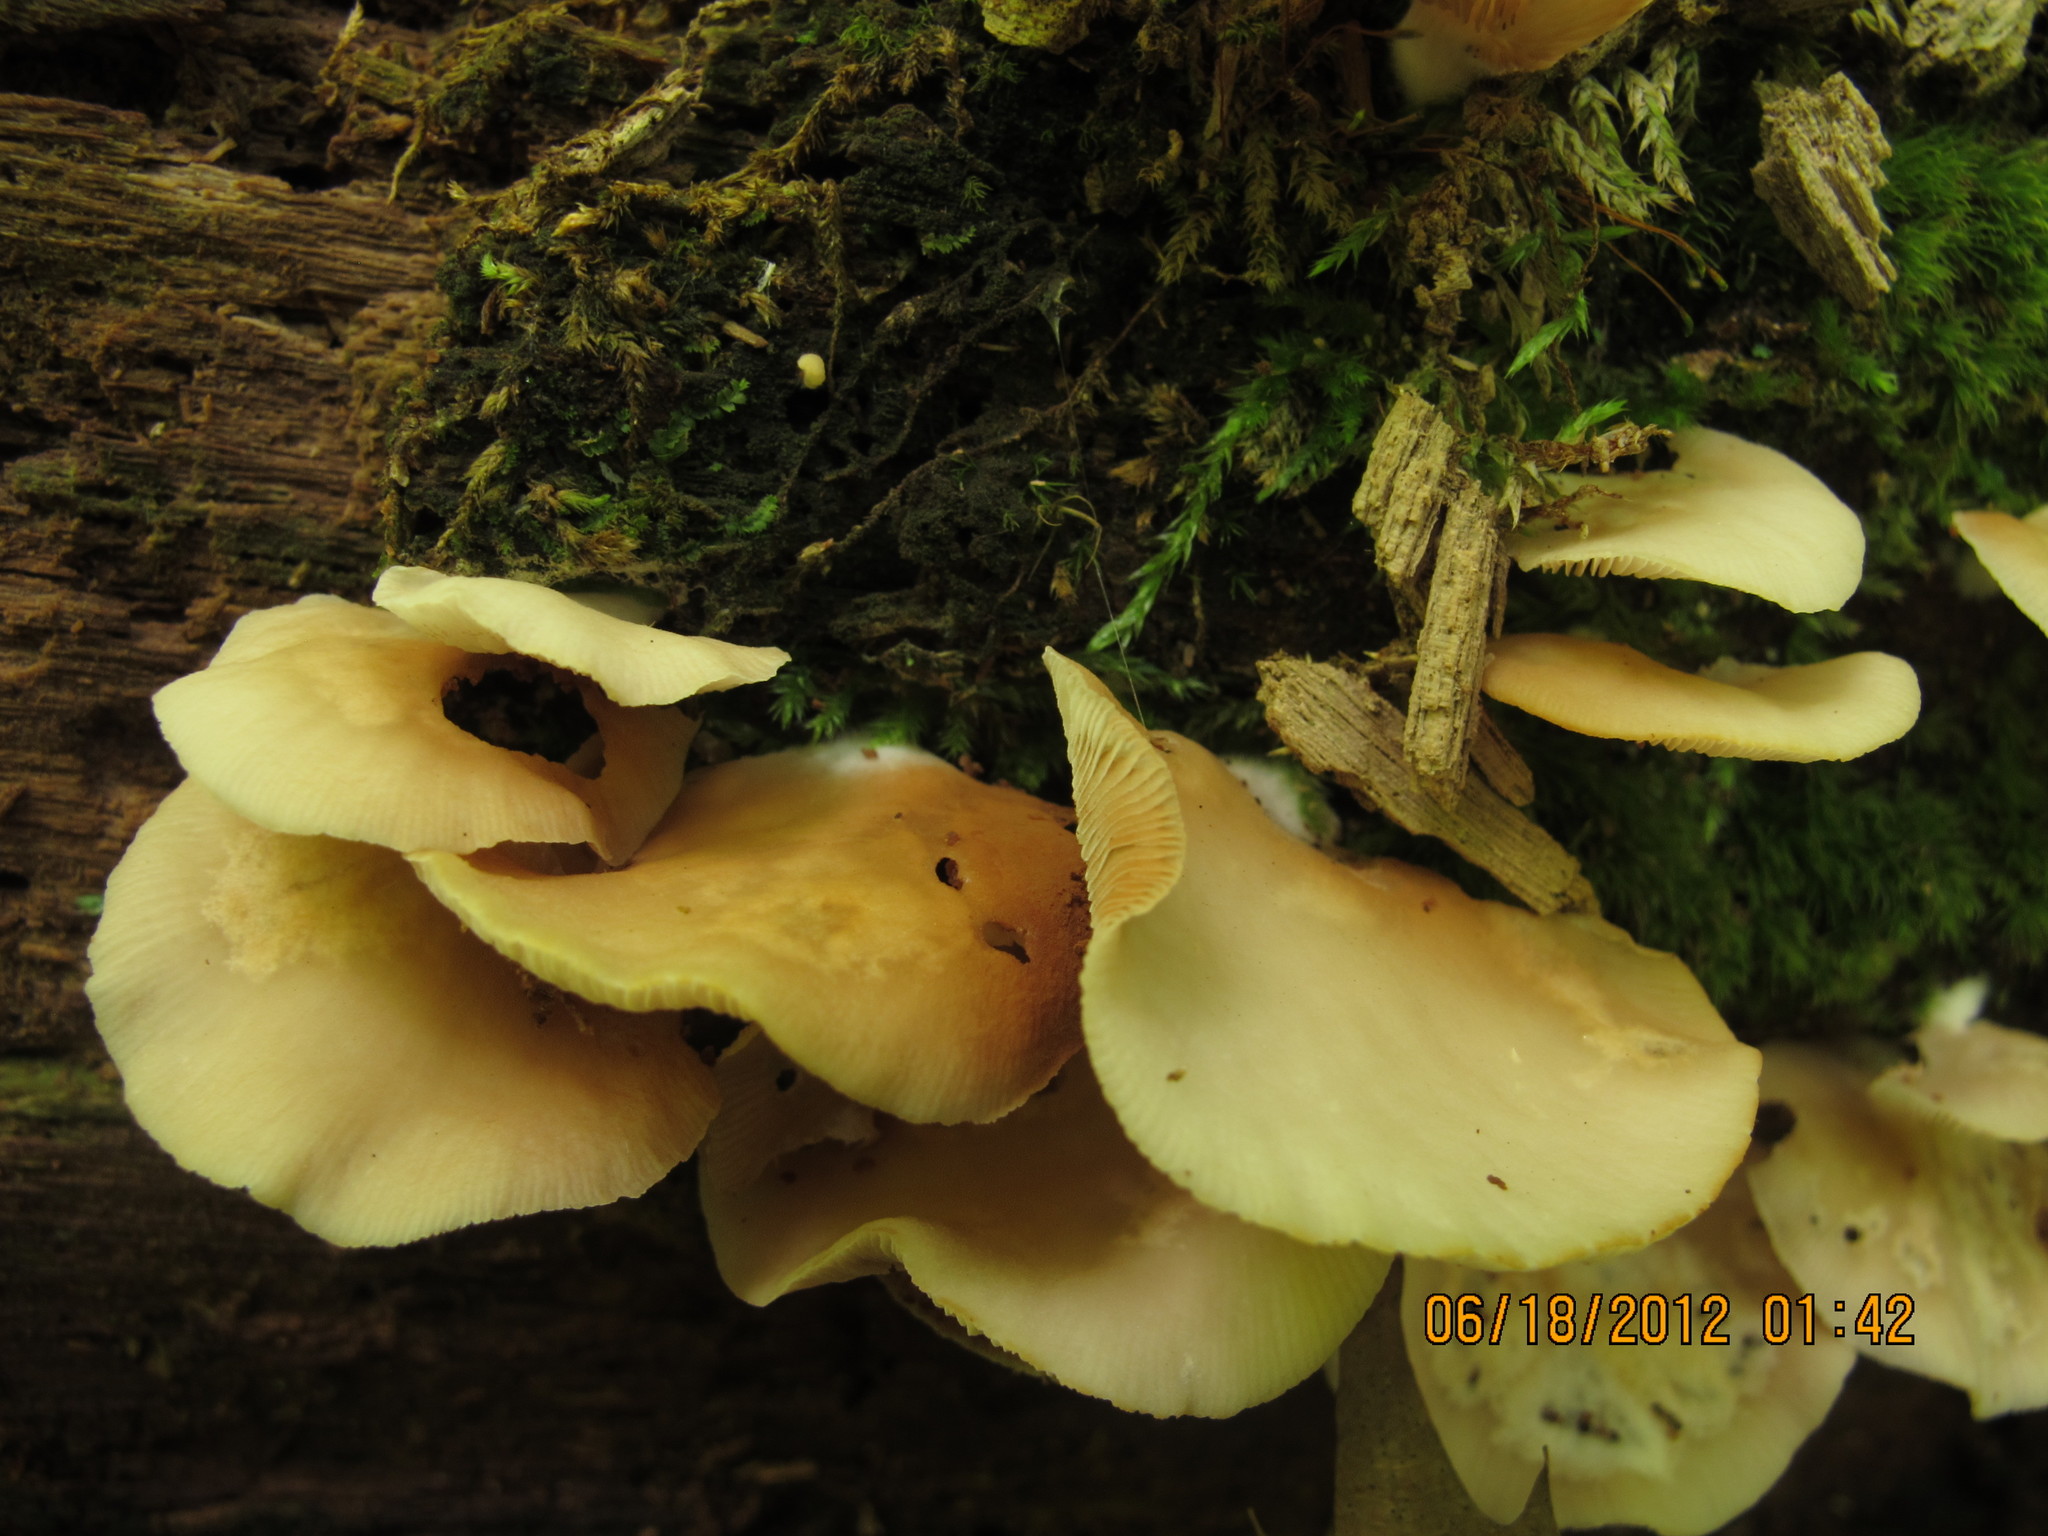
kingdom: Fungi
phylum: Basidiomycota
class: Agaricomycetes
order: Agaricales
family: Crepidotaceae
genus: Crepidotus
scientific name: Crepidotus applanatus
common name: Flat crep
